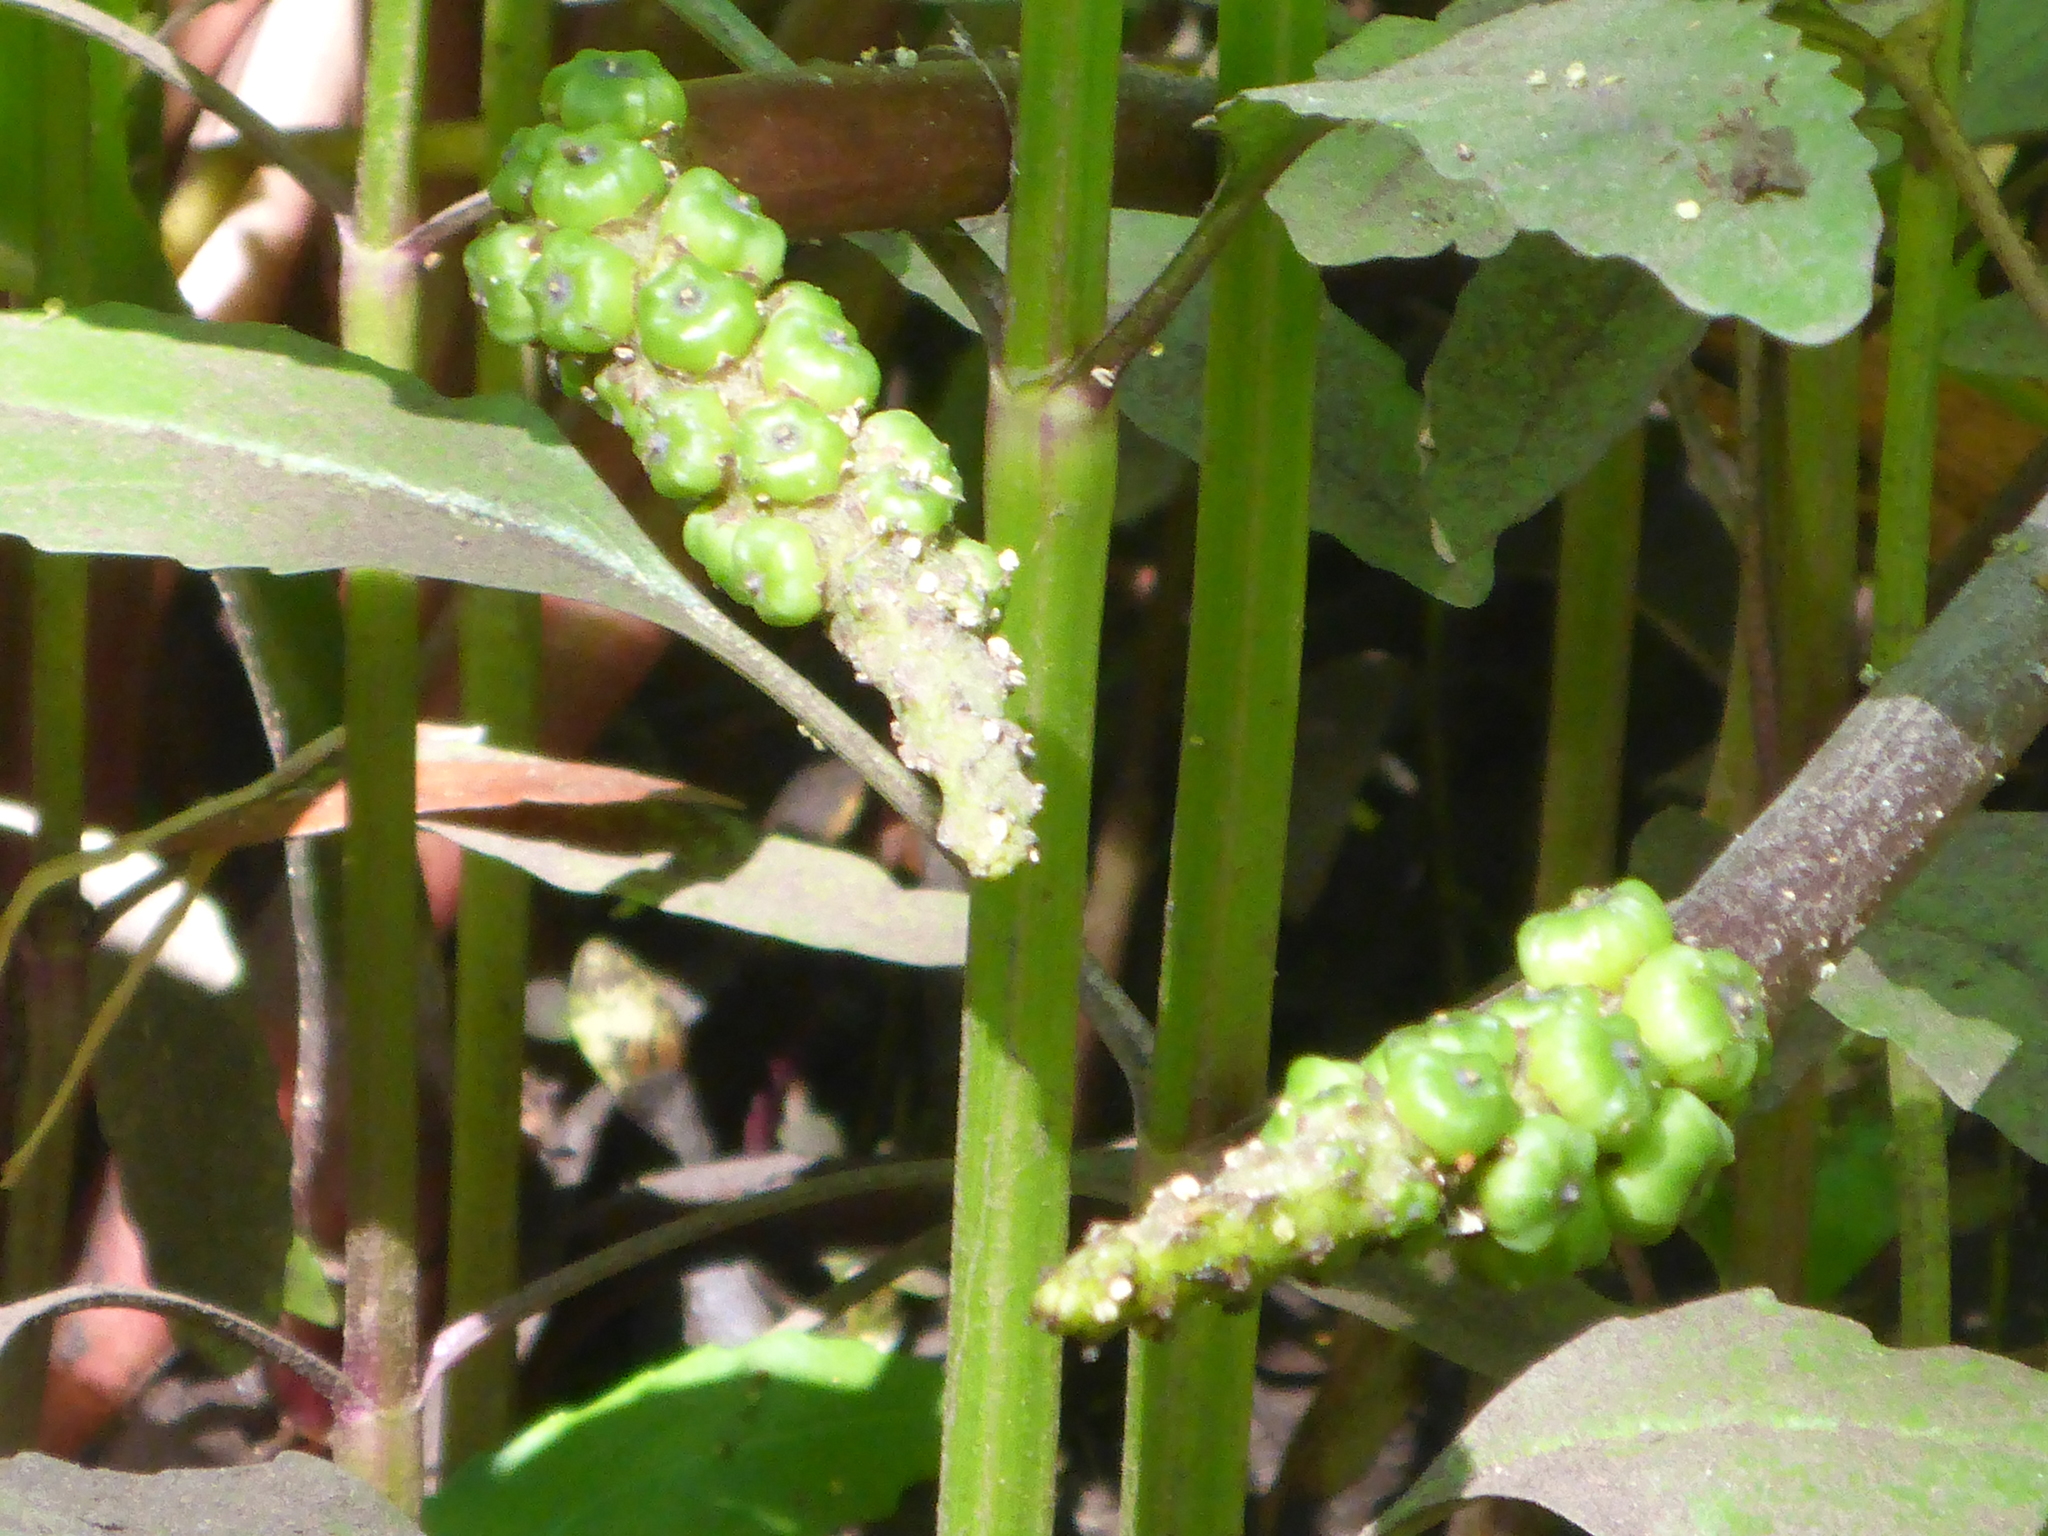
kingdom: Plantae
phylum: Tracheophyta
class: Liliopsida
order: Alismatales
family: Araceae
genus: Orontium
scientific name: Orontium aquaticum
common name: Golden-club
